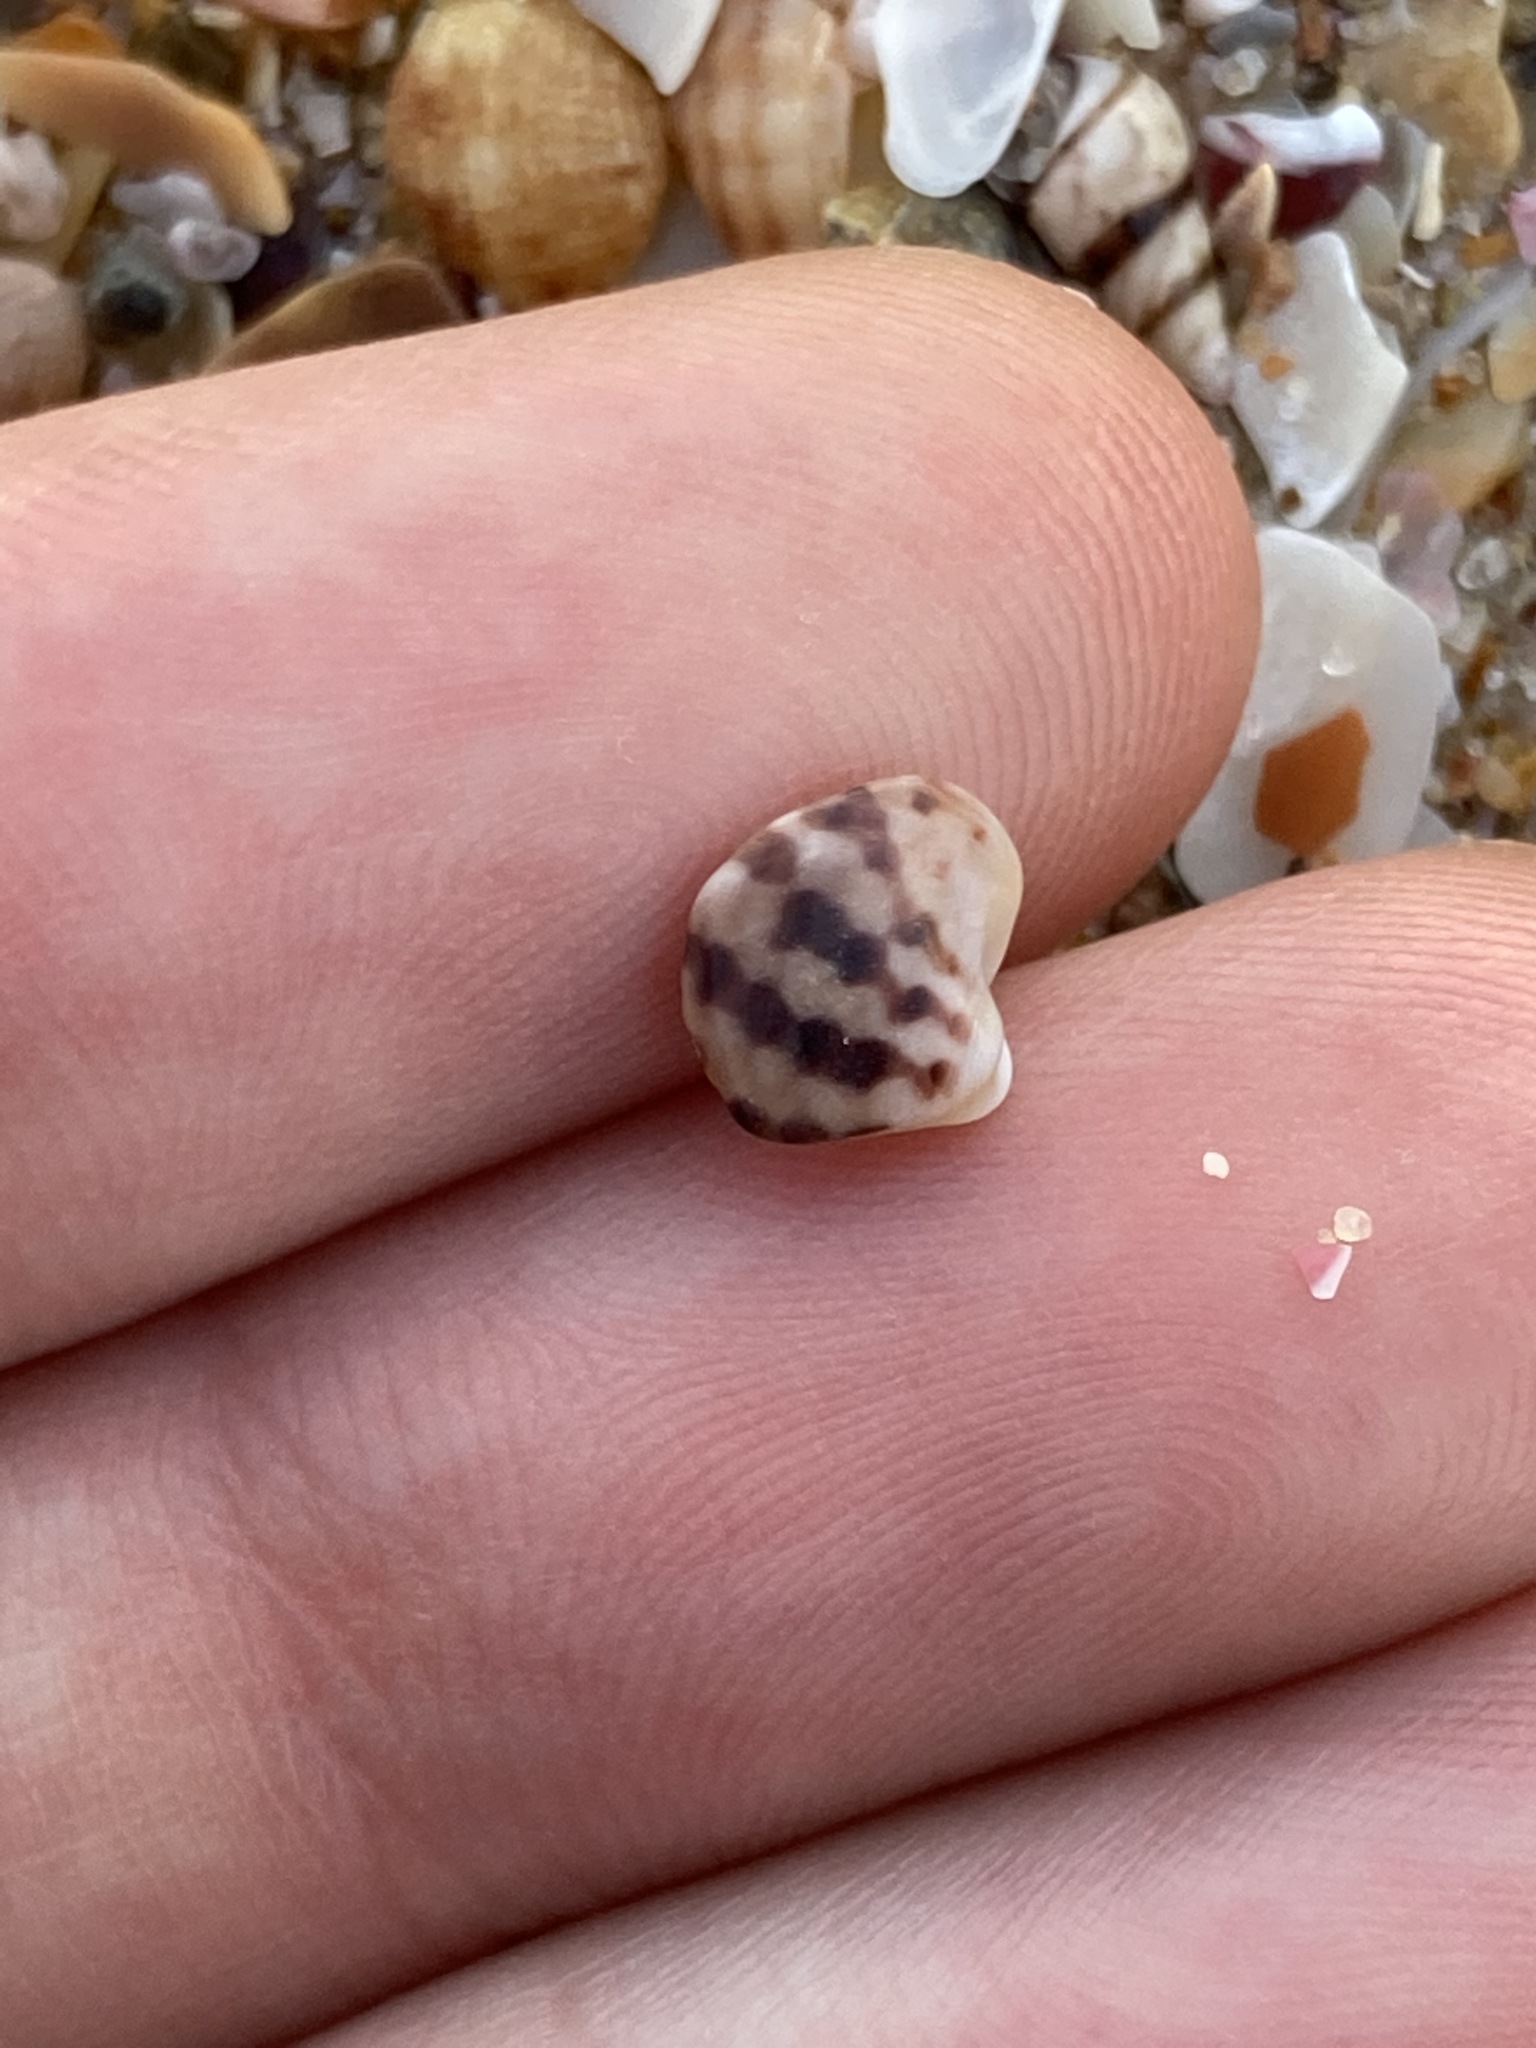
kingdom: Animalia
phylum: Mollusca
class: Gastropoda
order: Trochida
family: Trochidae
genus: Austrocochlea
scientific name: Austrocochlea porcata
